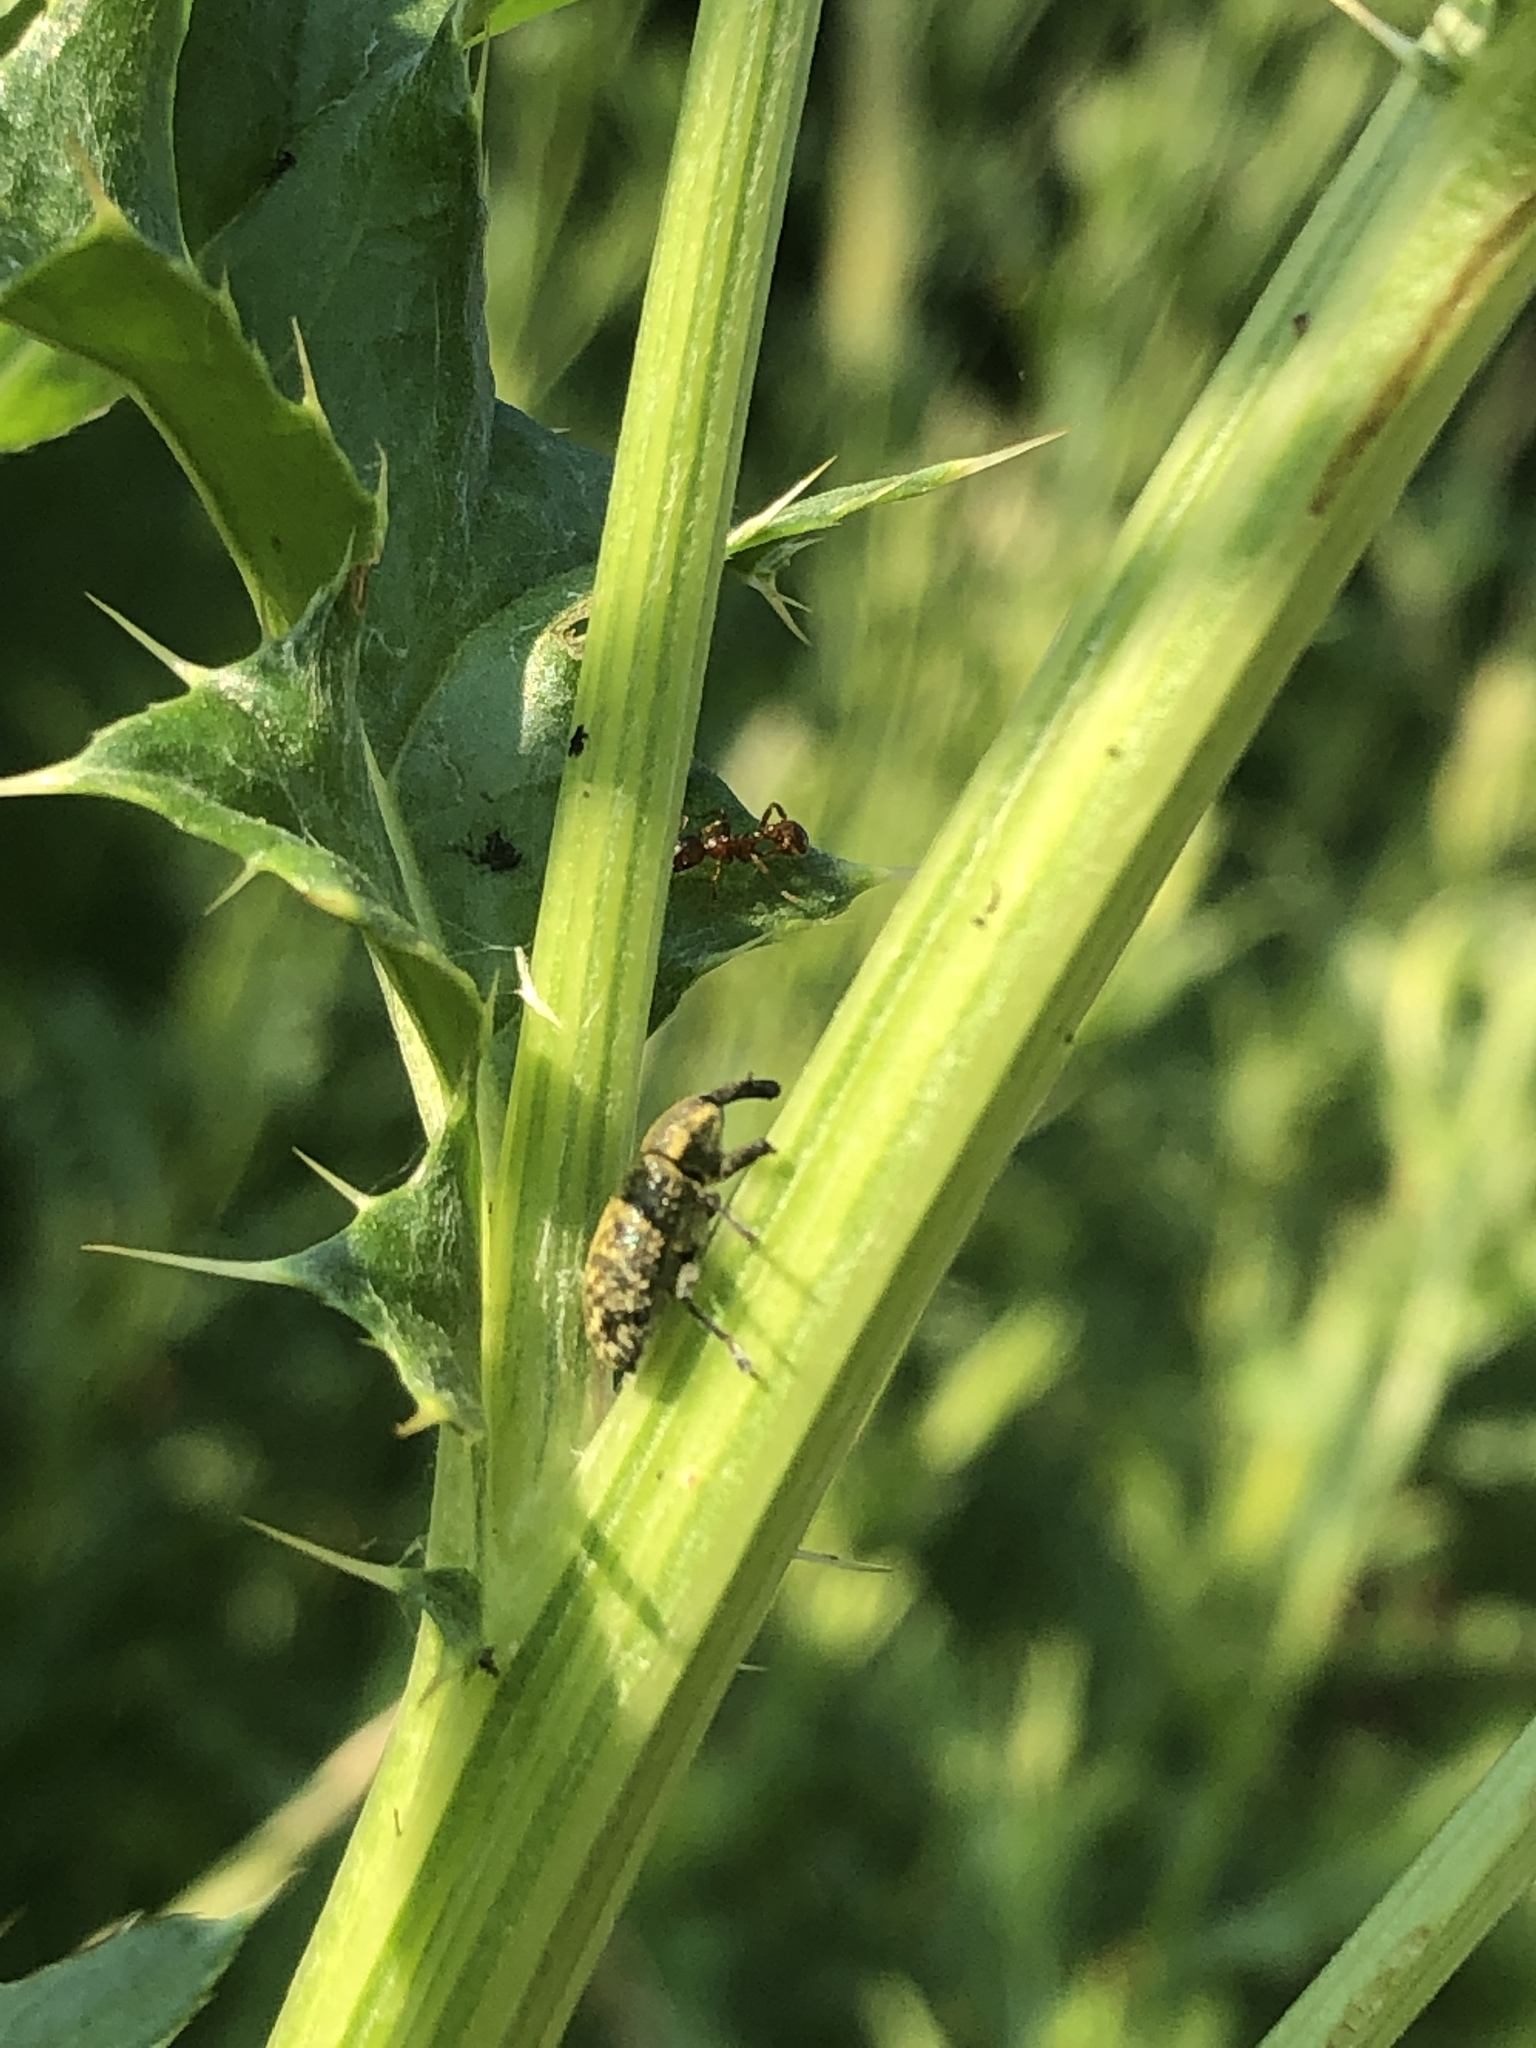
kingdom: Animalia
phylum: Arthropoda
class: Insecta
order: Coleoptera
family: Curculionidae
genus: Larinus
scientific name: Larinus carlinae
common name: Weevil
